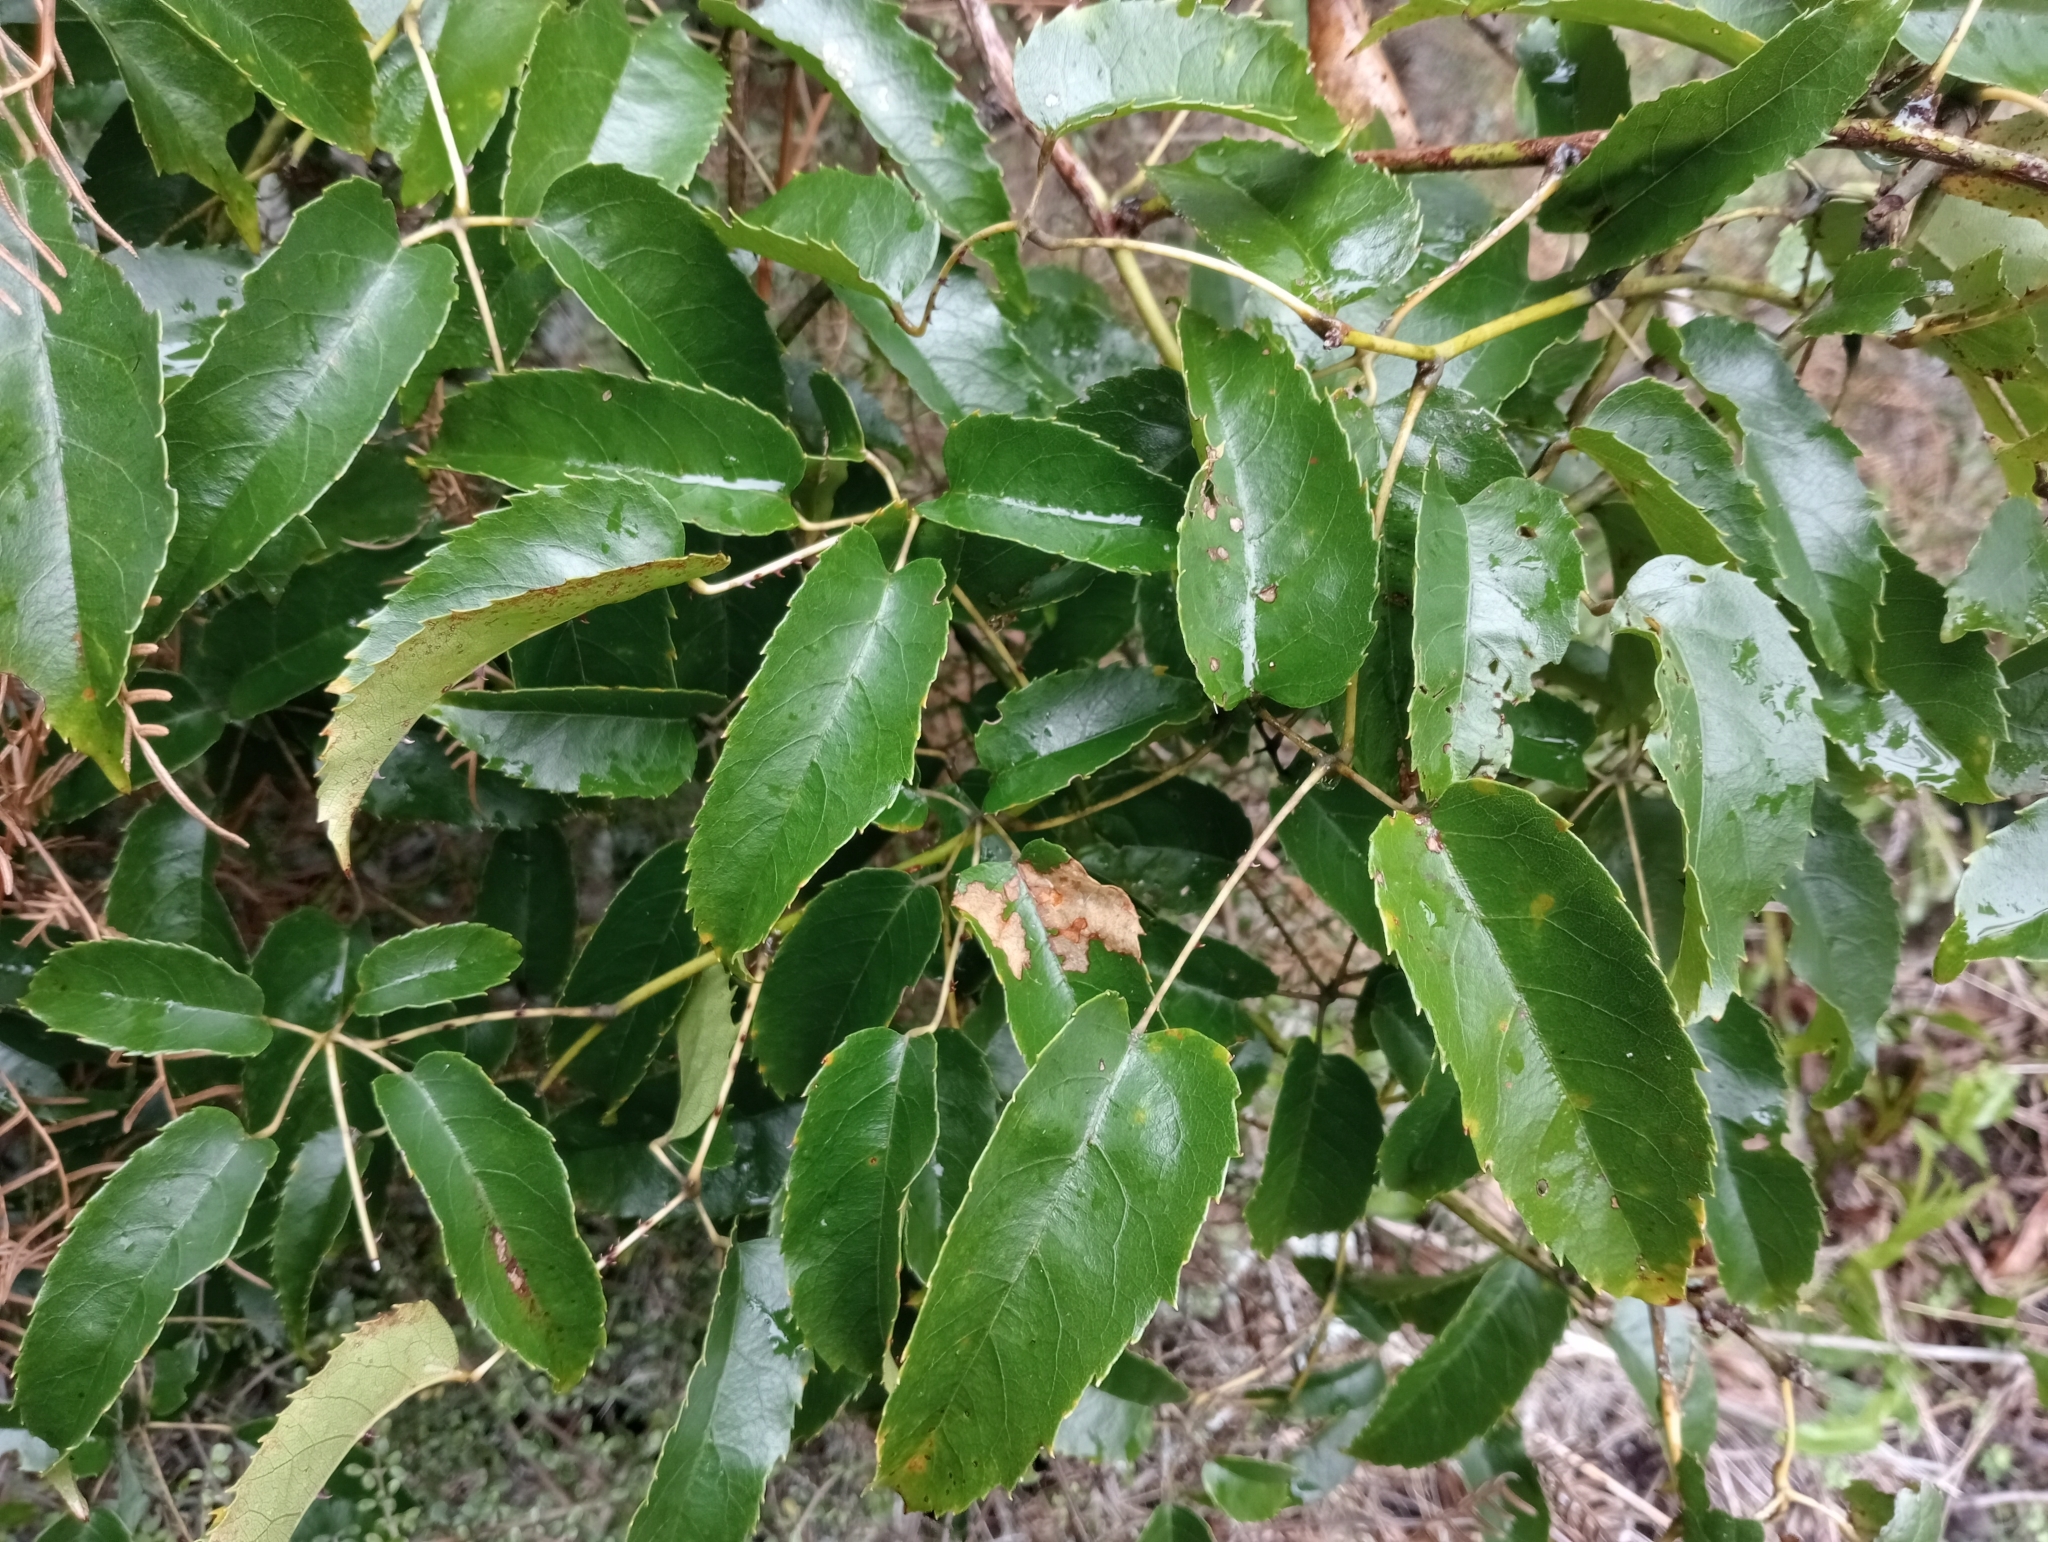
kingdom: Plantae
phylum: Tracheophyta
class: Magnoliopsida
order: Rosales
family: Rosaceae
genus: Rubus
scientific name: Rubus cissoides
